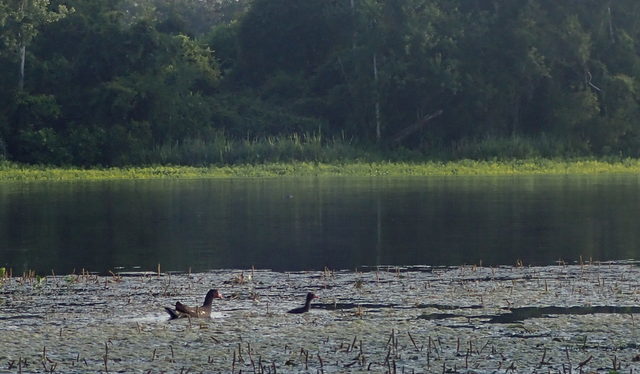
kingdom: Animalia
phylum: Chordata
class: Aves
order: Gruiformes
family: Rallidae
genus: Gallinula
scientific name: Gallinula chloropus
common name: Common moorhen
